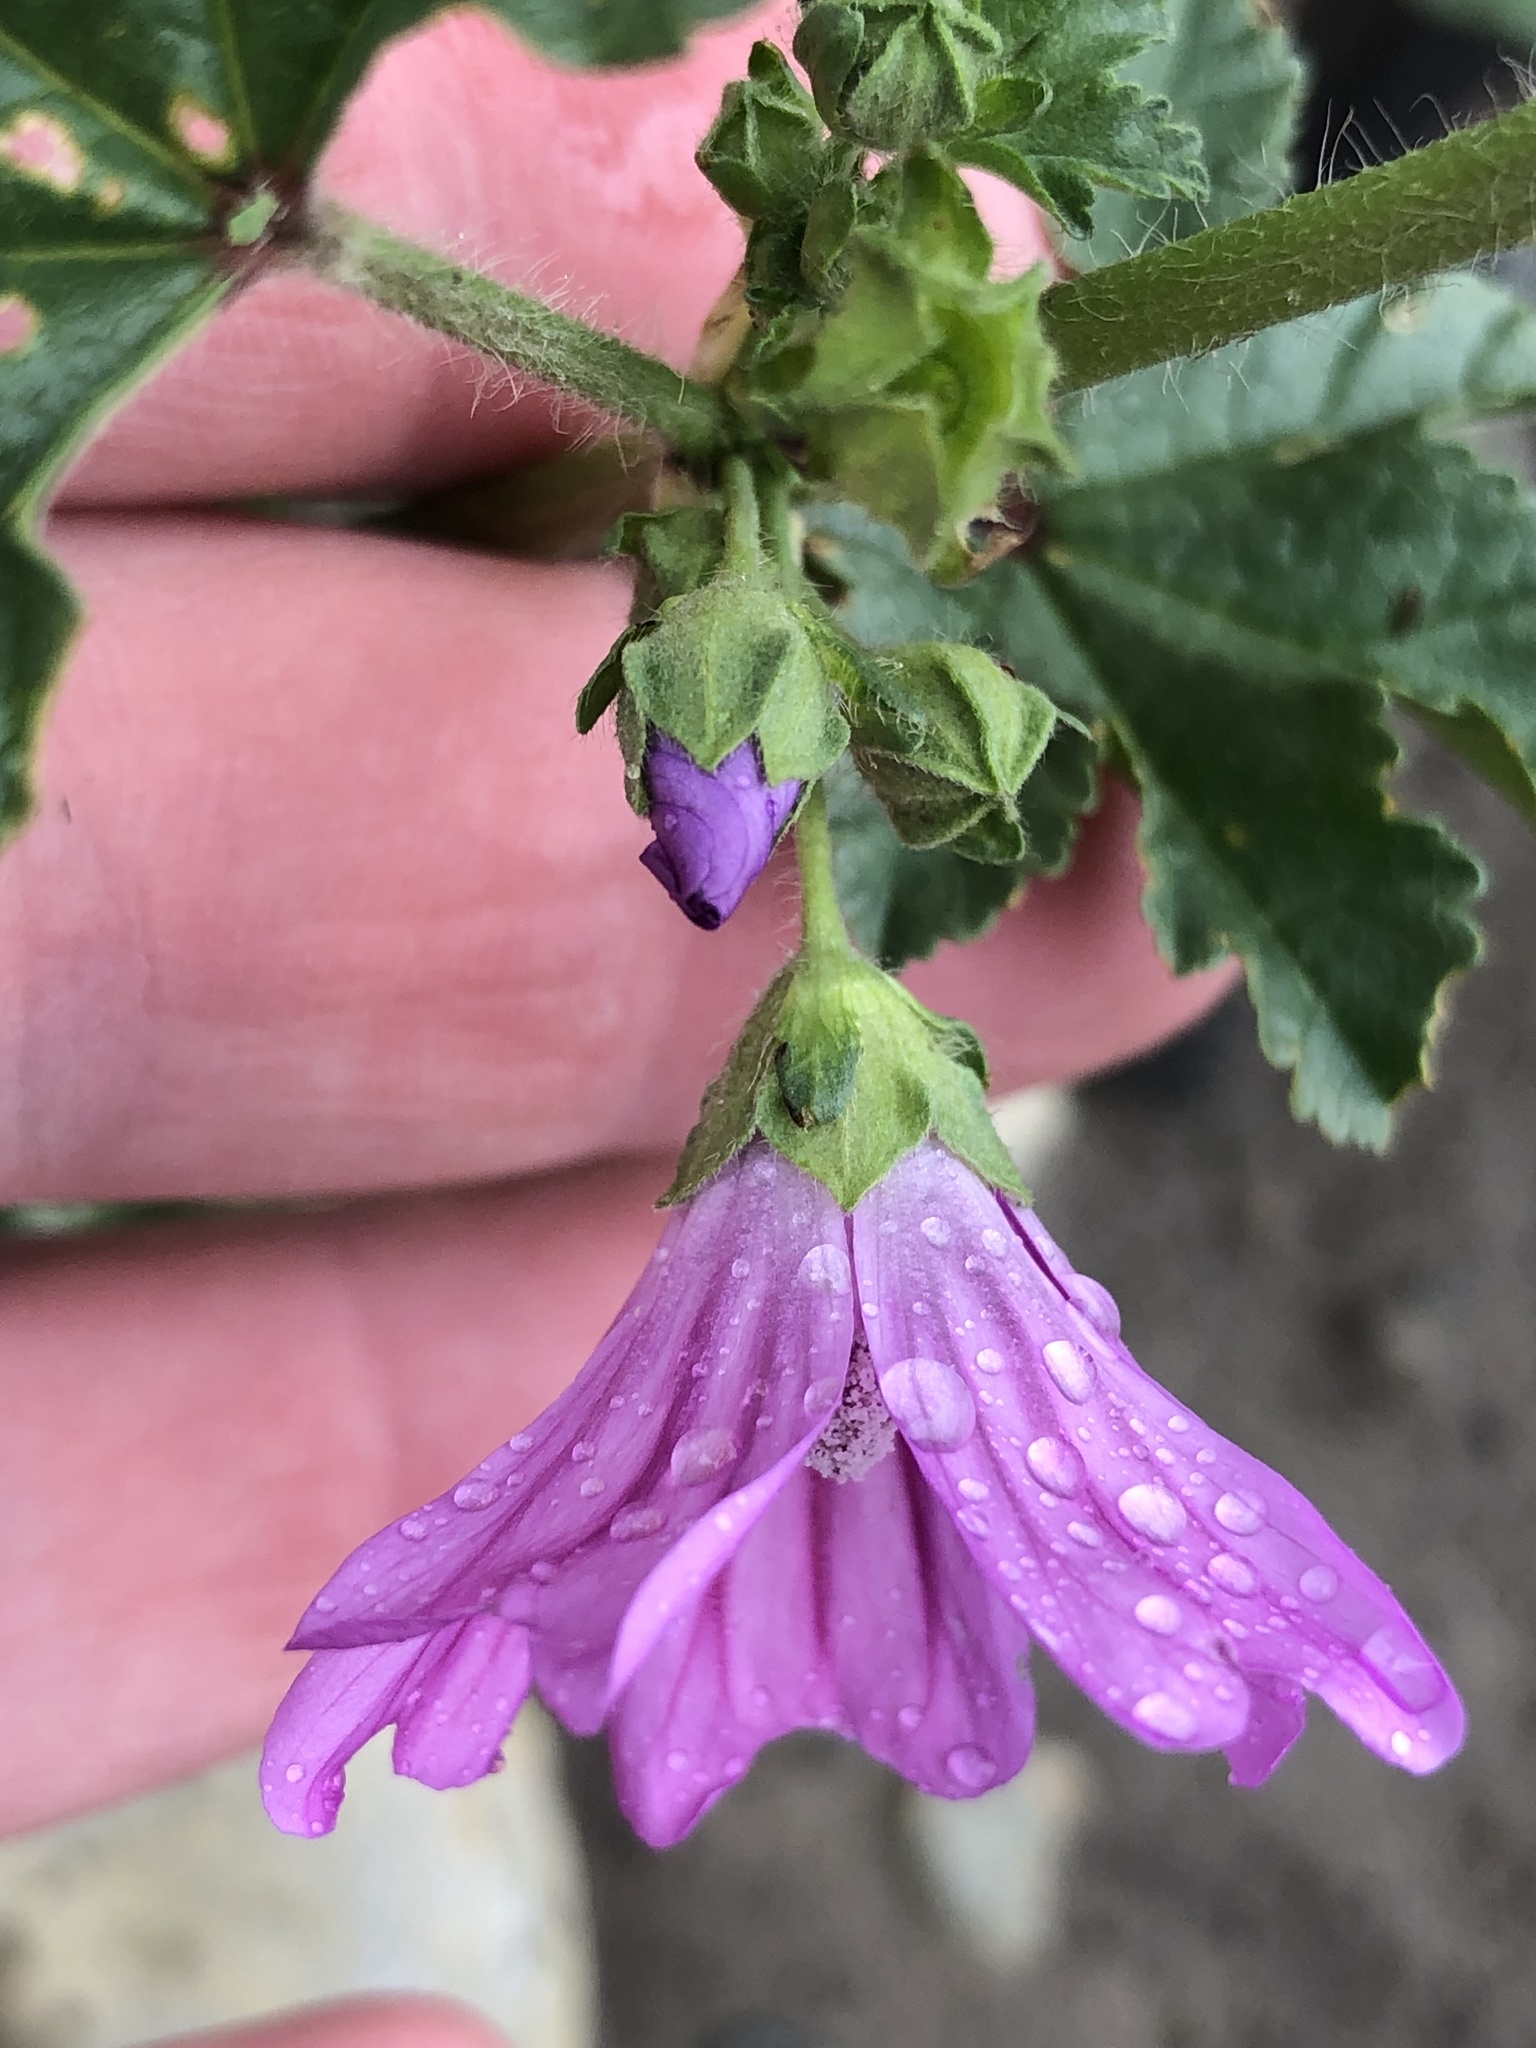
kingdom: Plantae
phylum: Tracheophyta
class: Magnoliopsida
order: Malvales
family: Malvaceae
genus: Malva
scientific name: Malva sylvestris
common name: Common mallow
